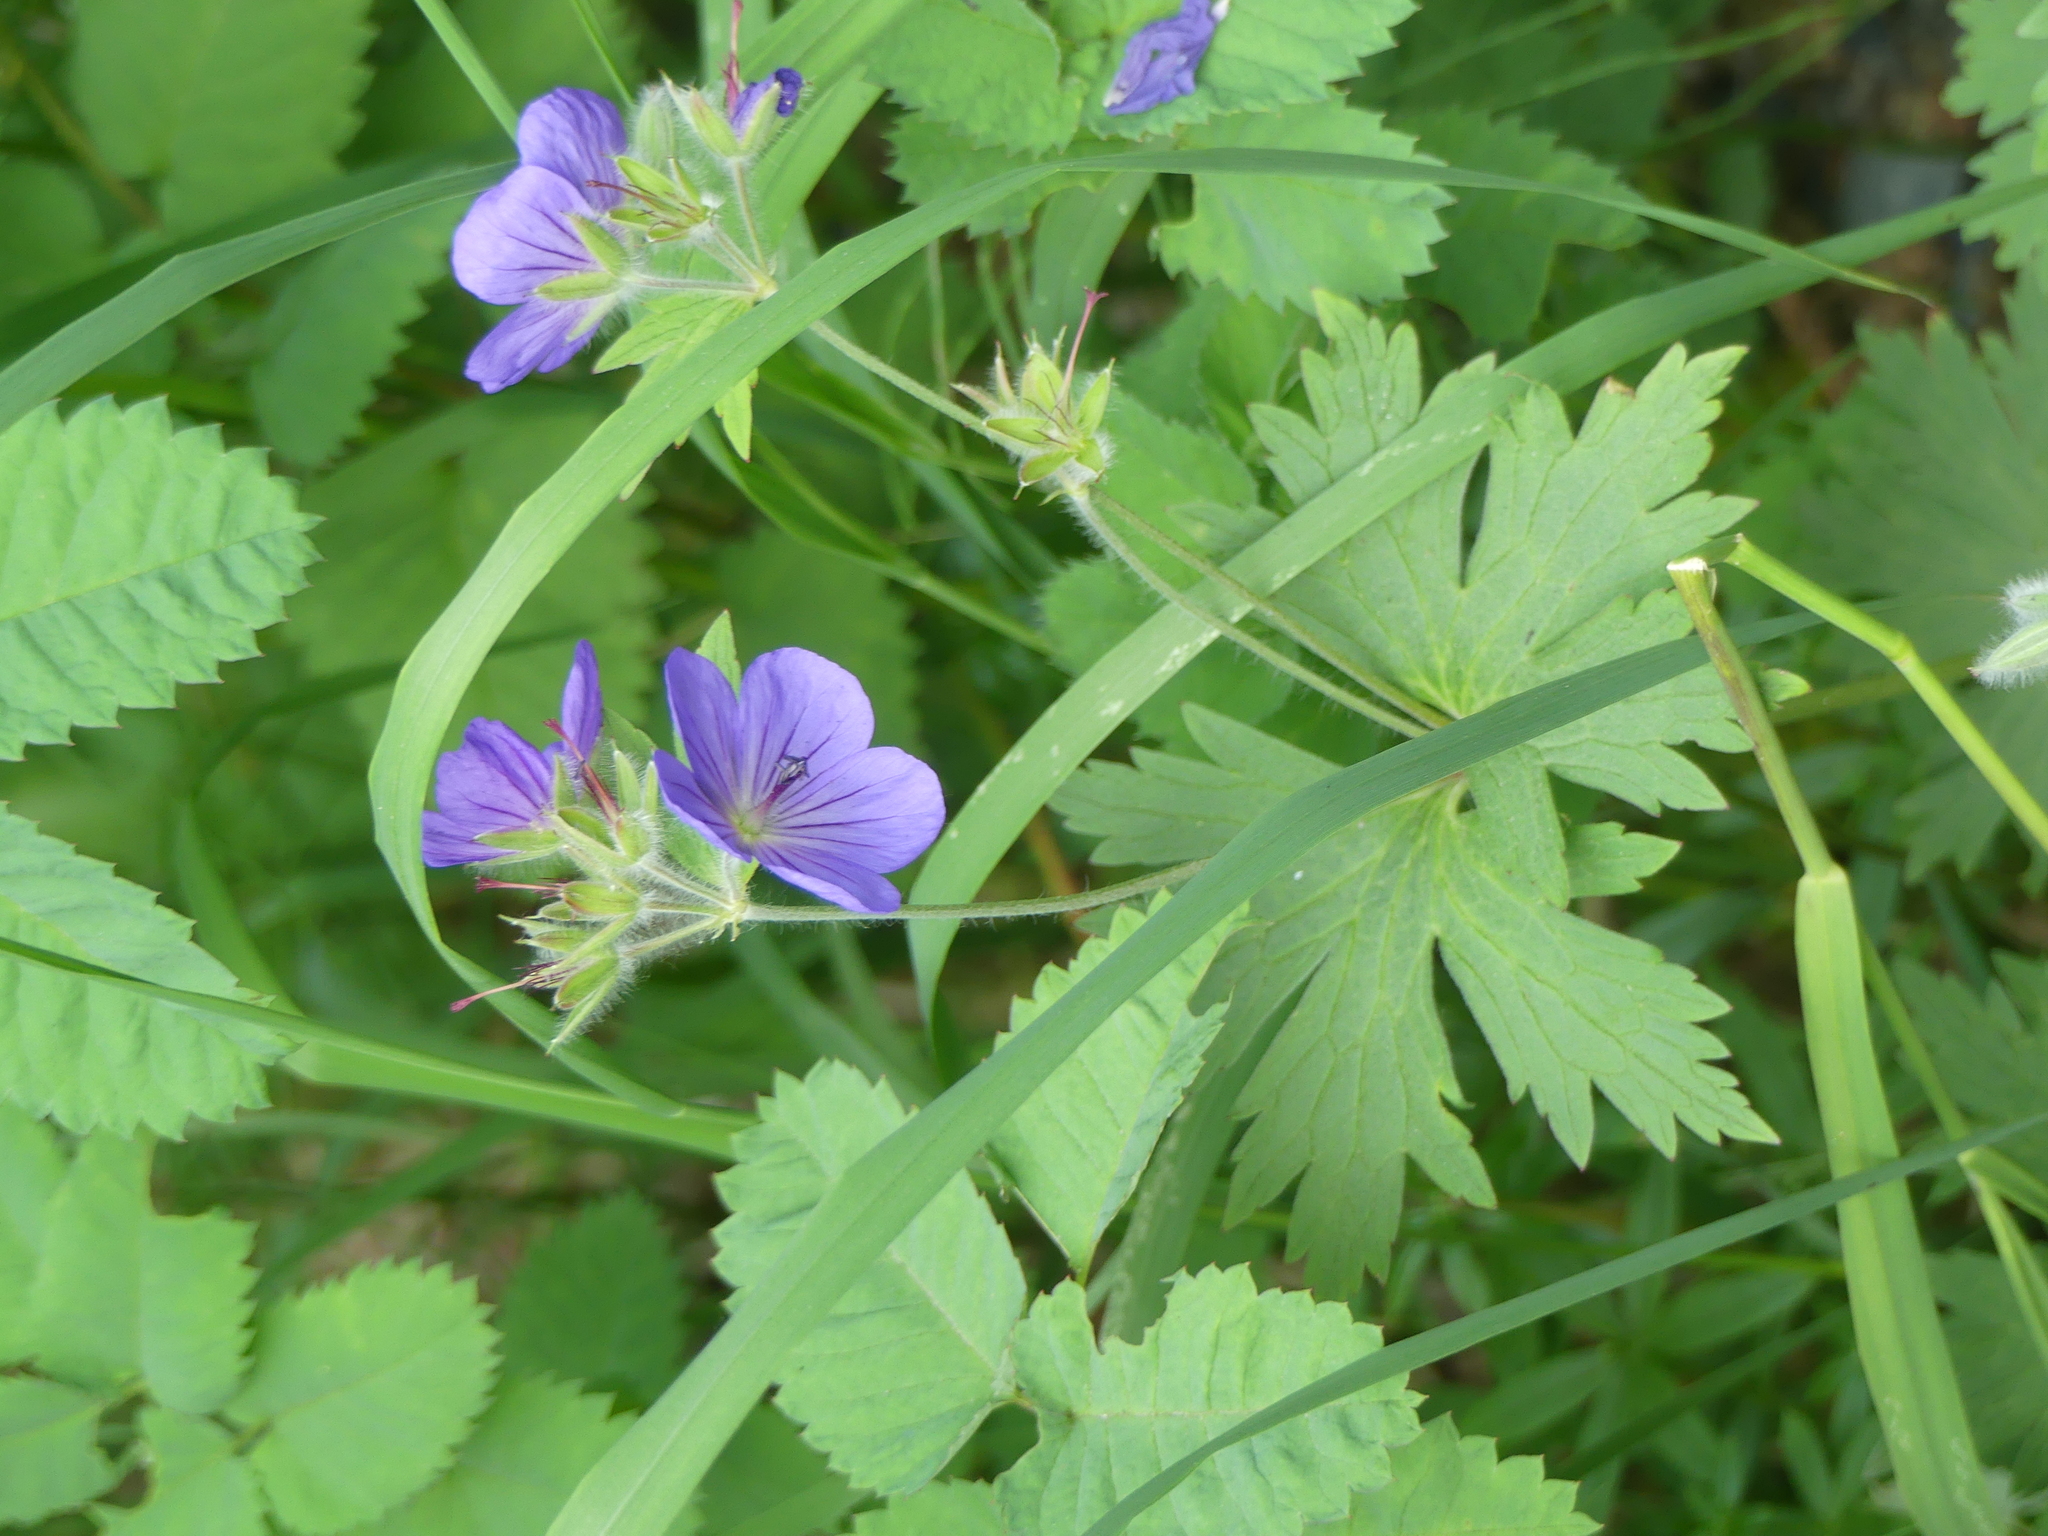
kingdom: Plantae
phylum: Tracheophyta
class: Magnoliopsida
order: Geraniales
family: Geraniaceae
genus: Geranium
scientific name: Geranium erianthum
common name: Northern crane's-bill
